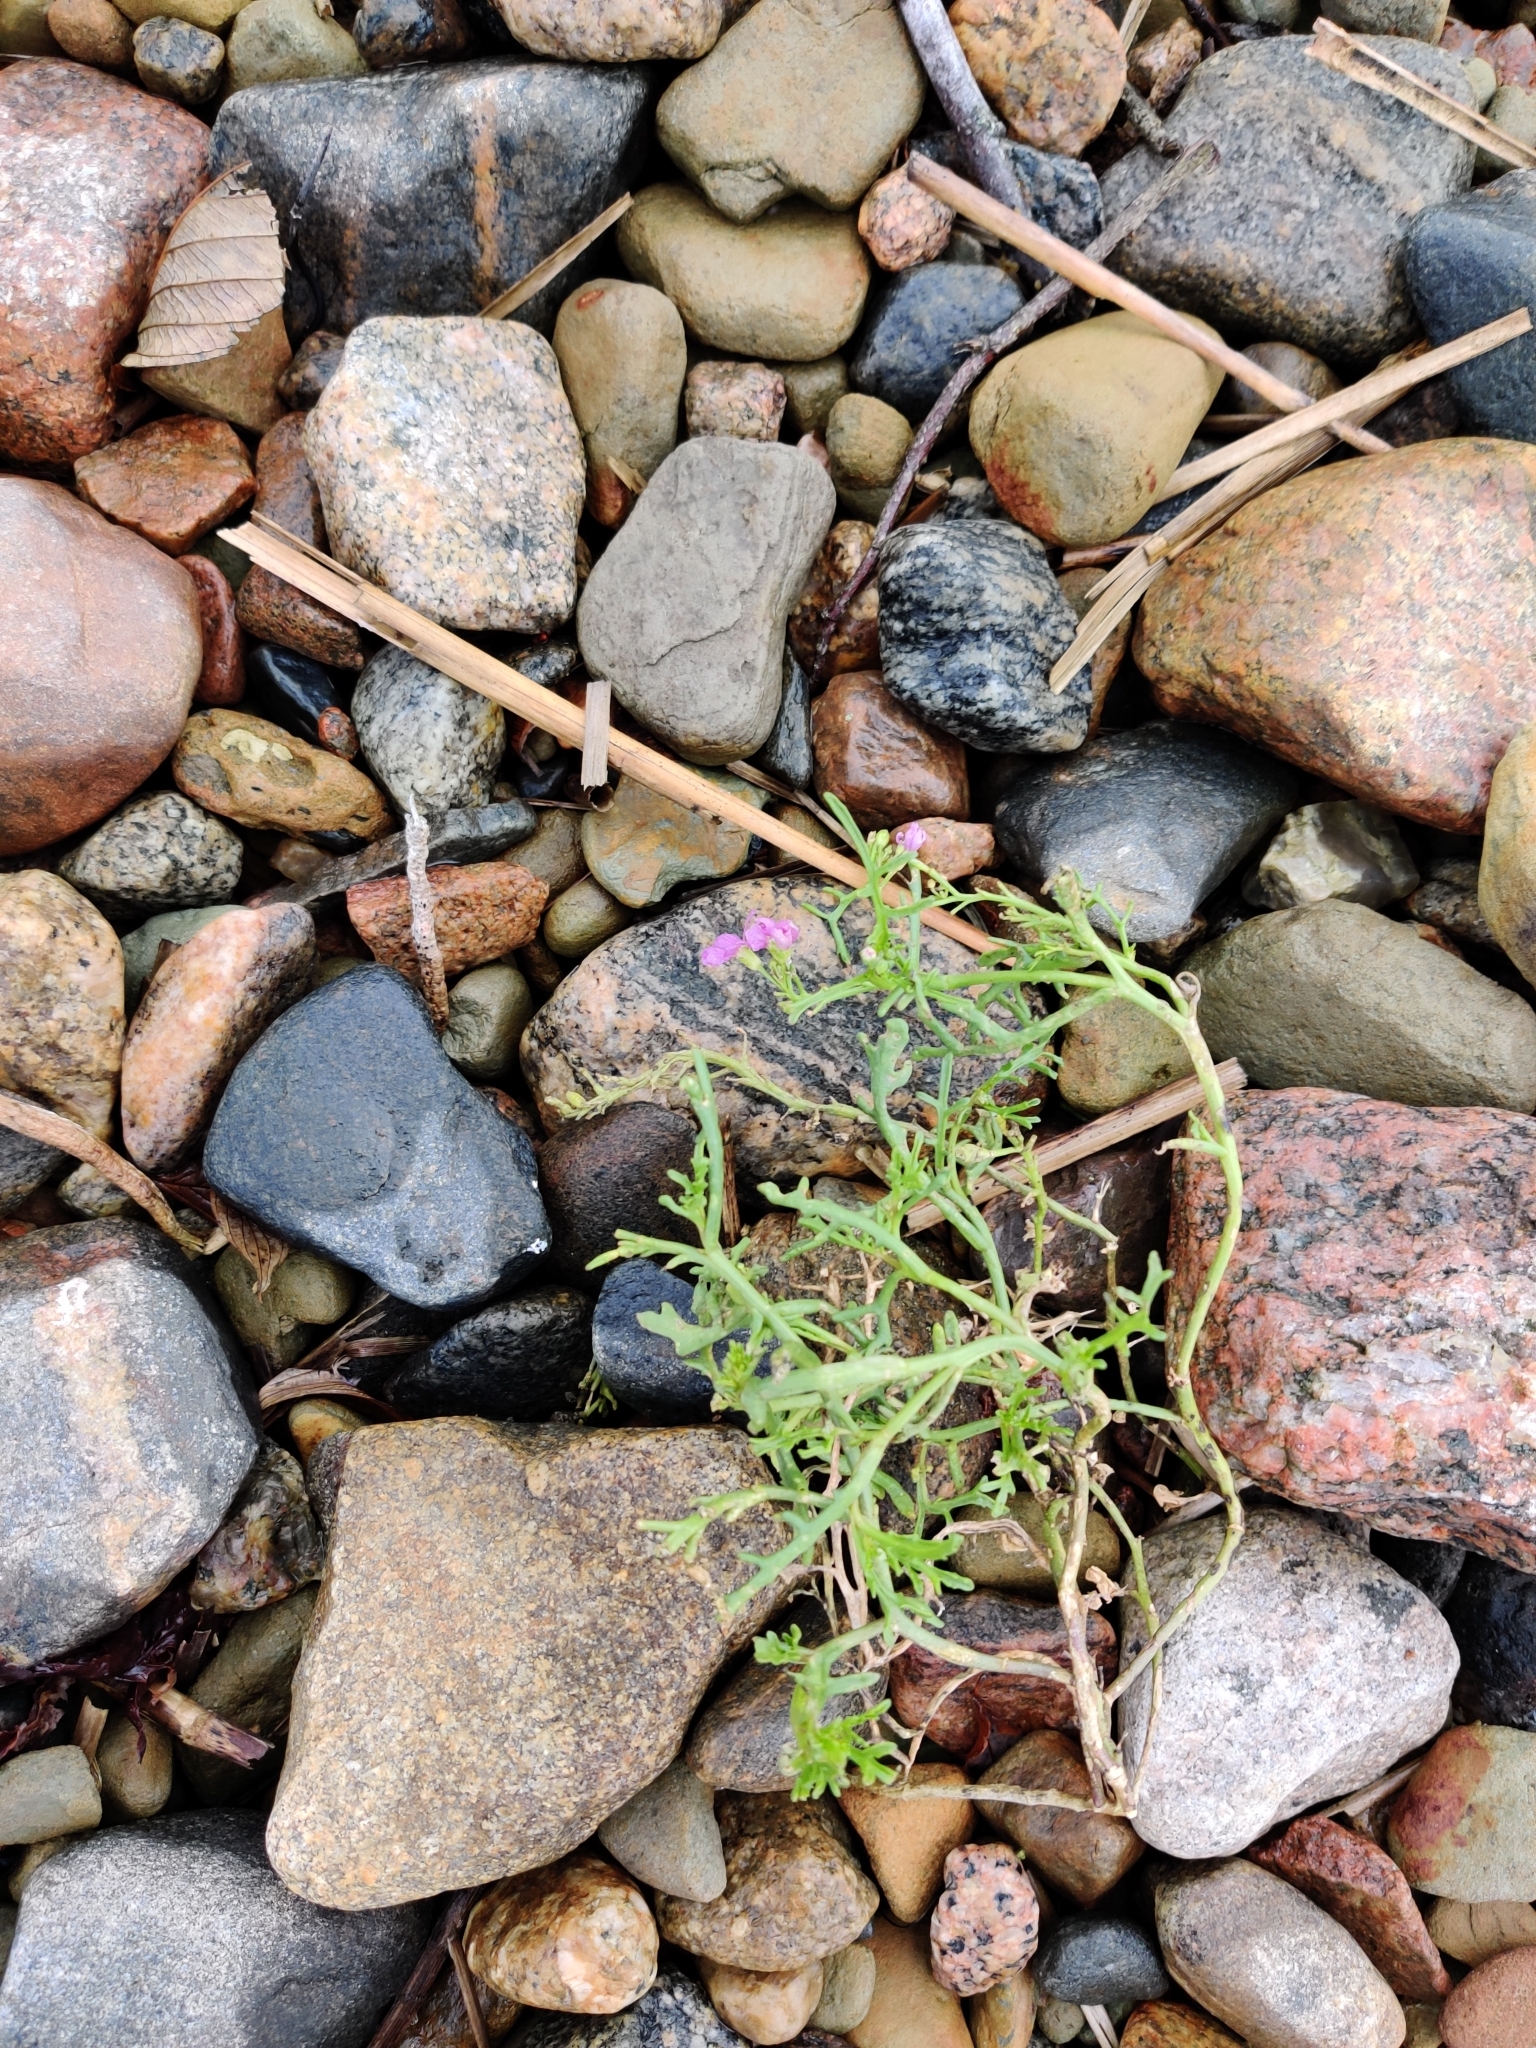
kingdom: Plantae
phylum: Tracheophyta
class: Magnoliopsida
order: Brassicales
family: Brassicaceae
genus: Cakile
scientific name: Cakile maritima
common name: Sea rocket
